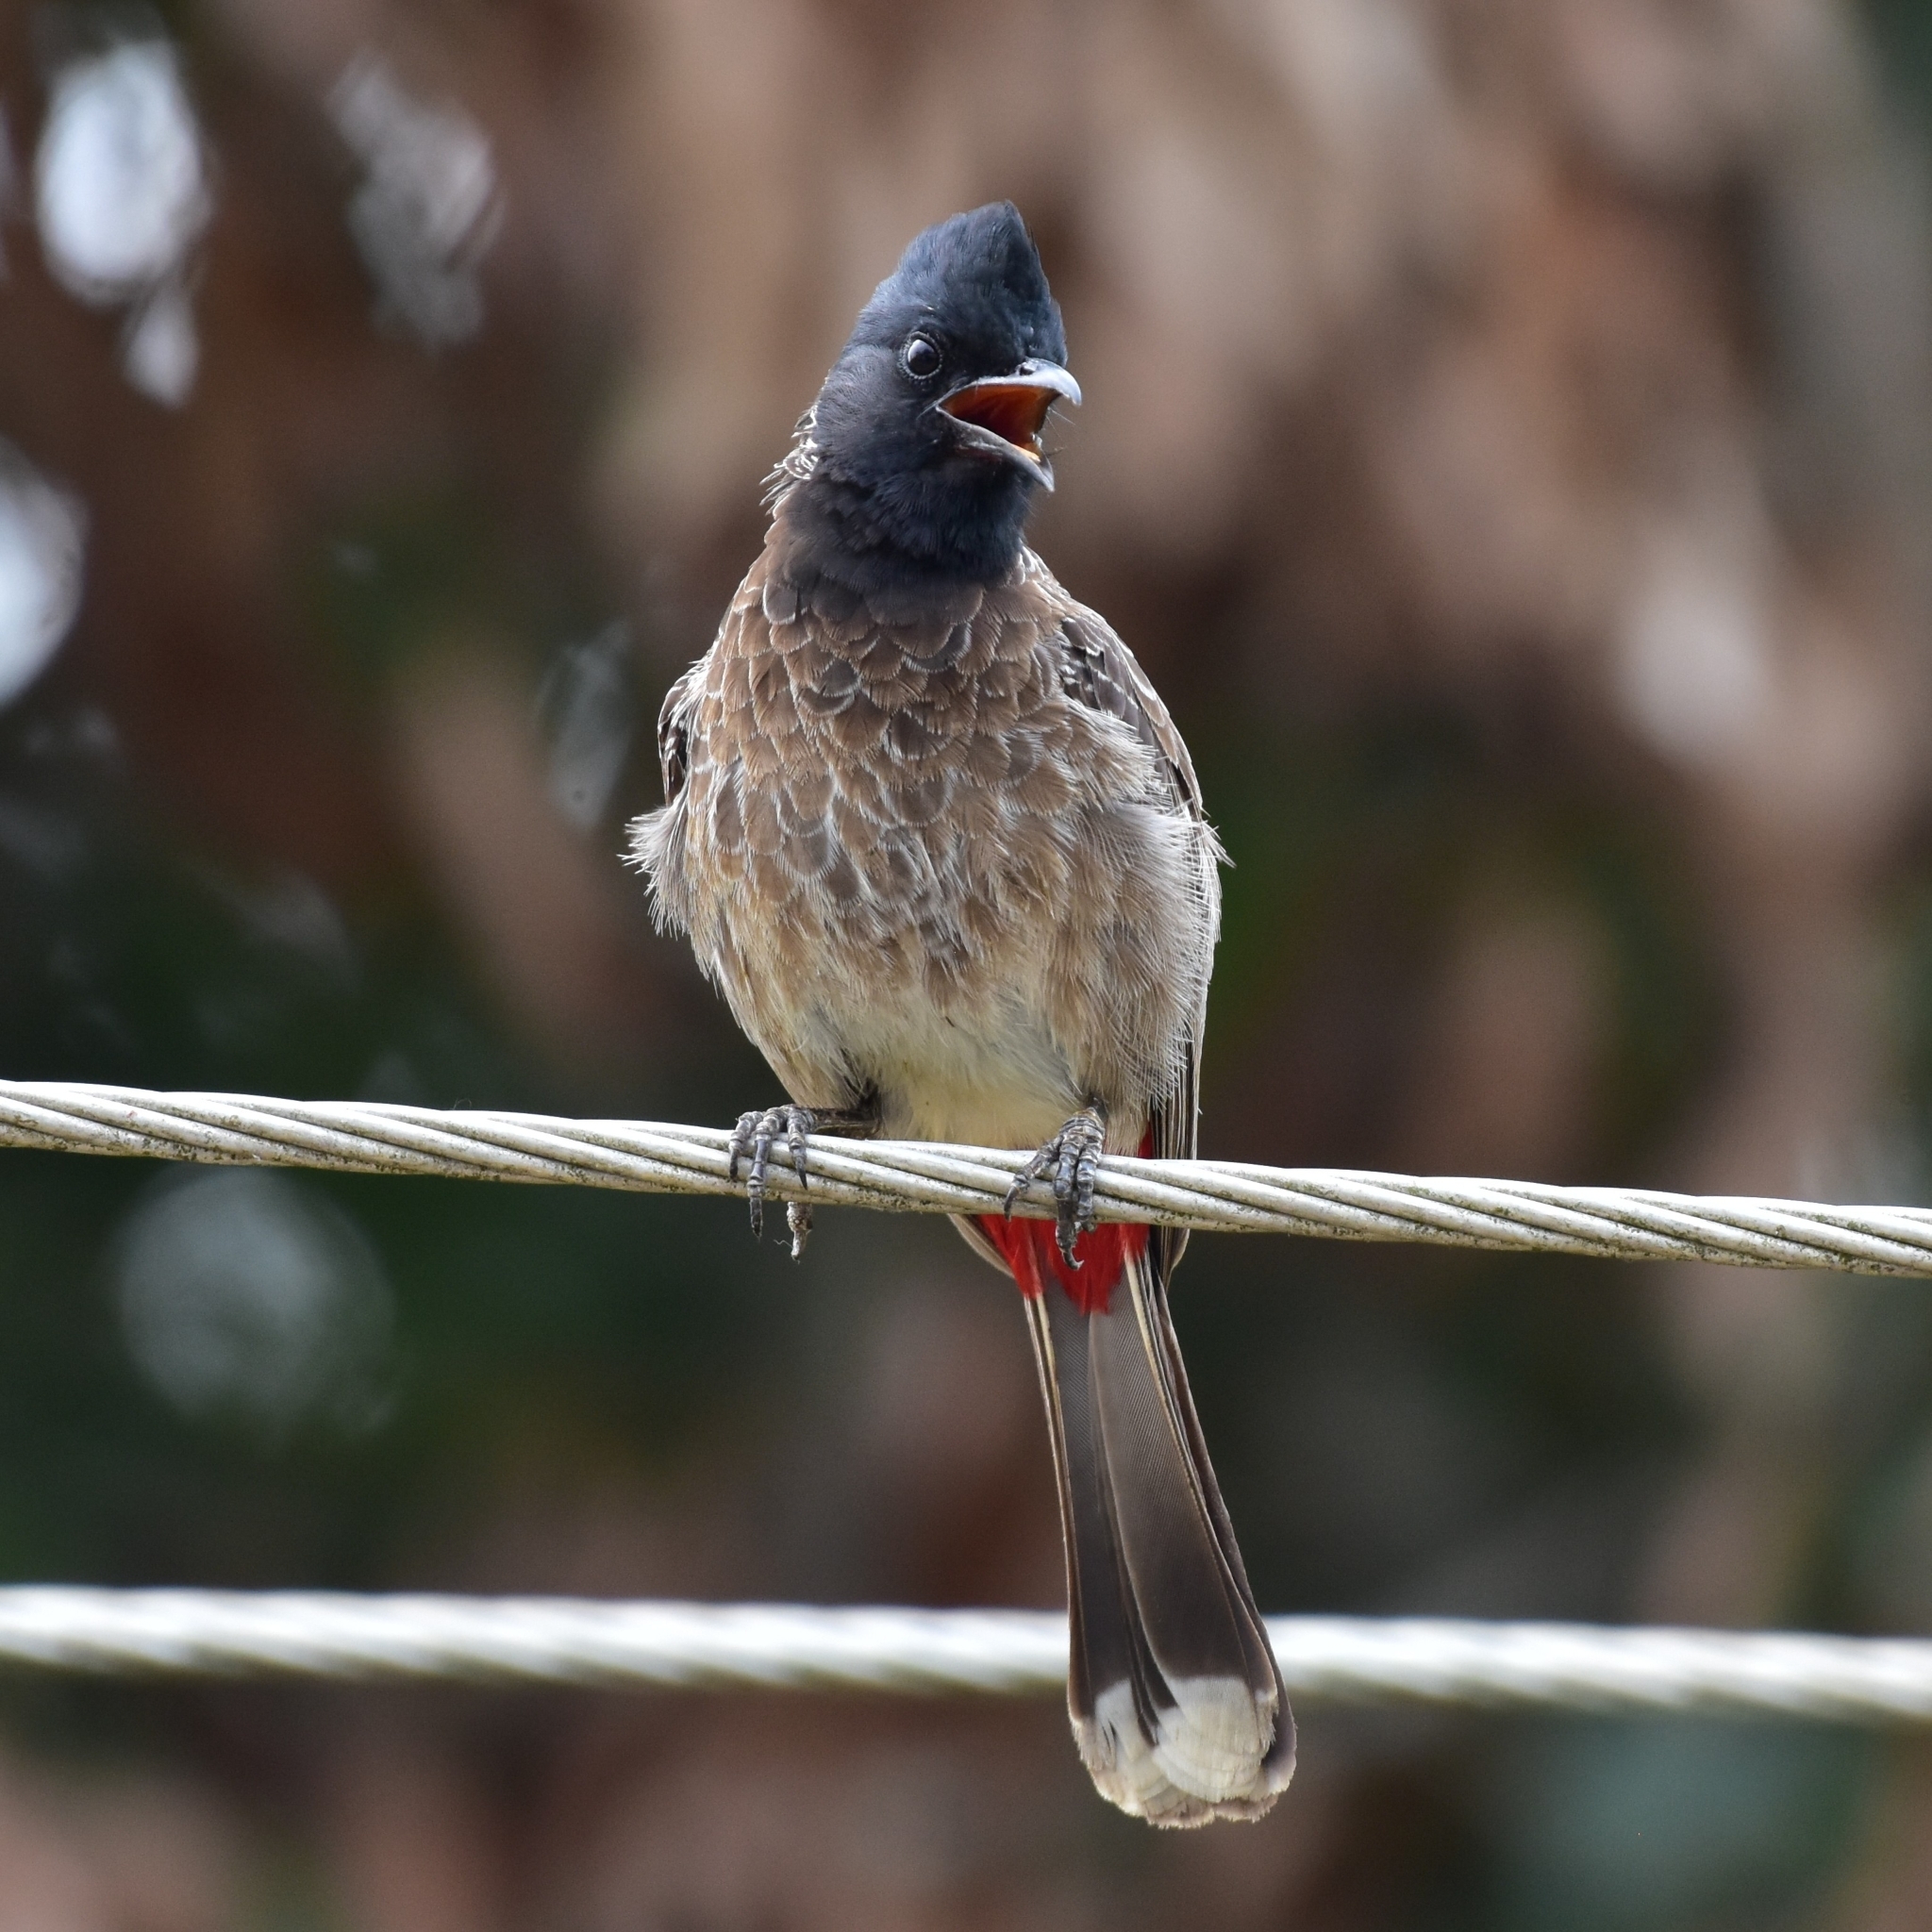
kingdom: Animalia
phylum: Chordata
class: Aves
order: Passeriformes
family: Pycnonotidae
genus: Pycnonotus
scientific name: Pycnonotus cafer
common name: Red-vented bulbul
